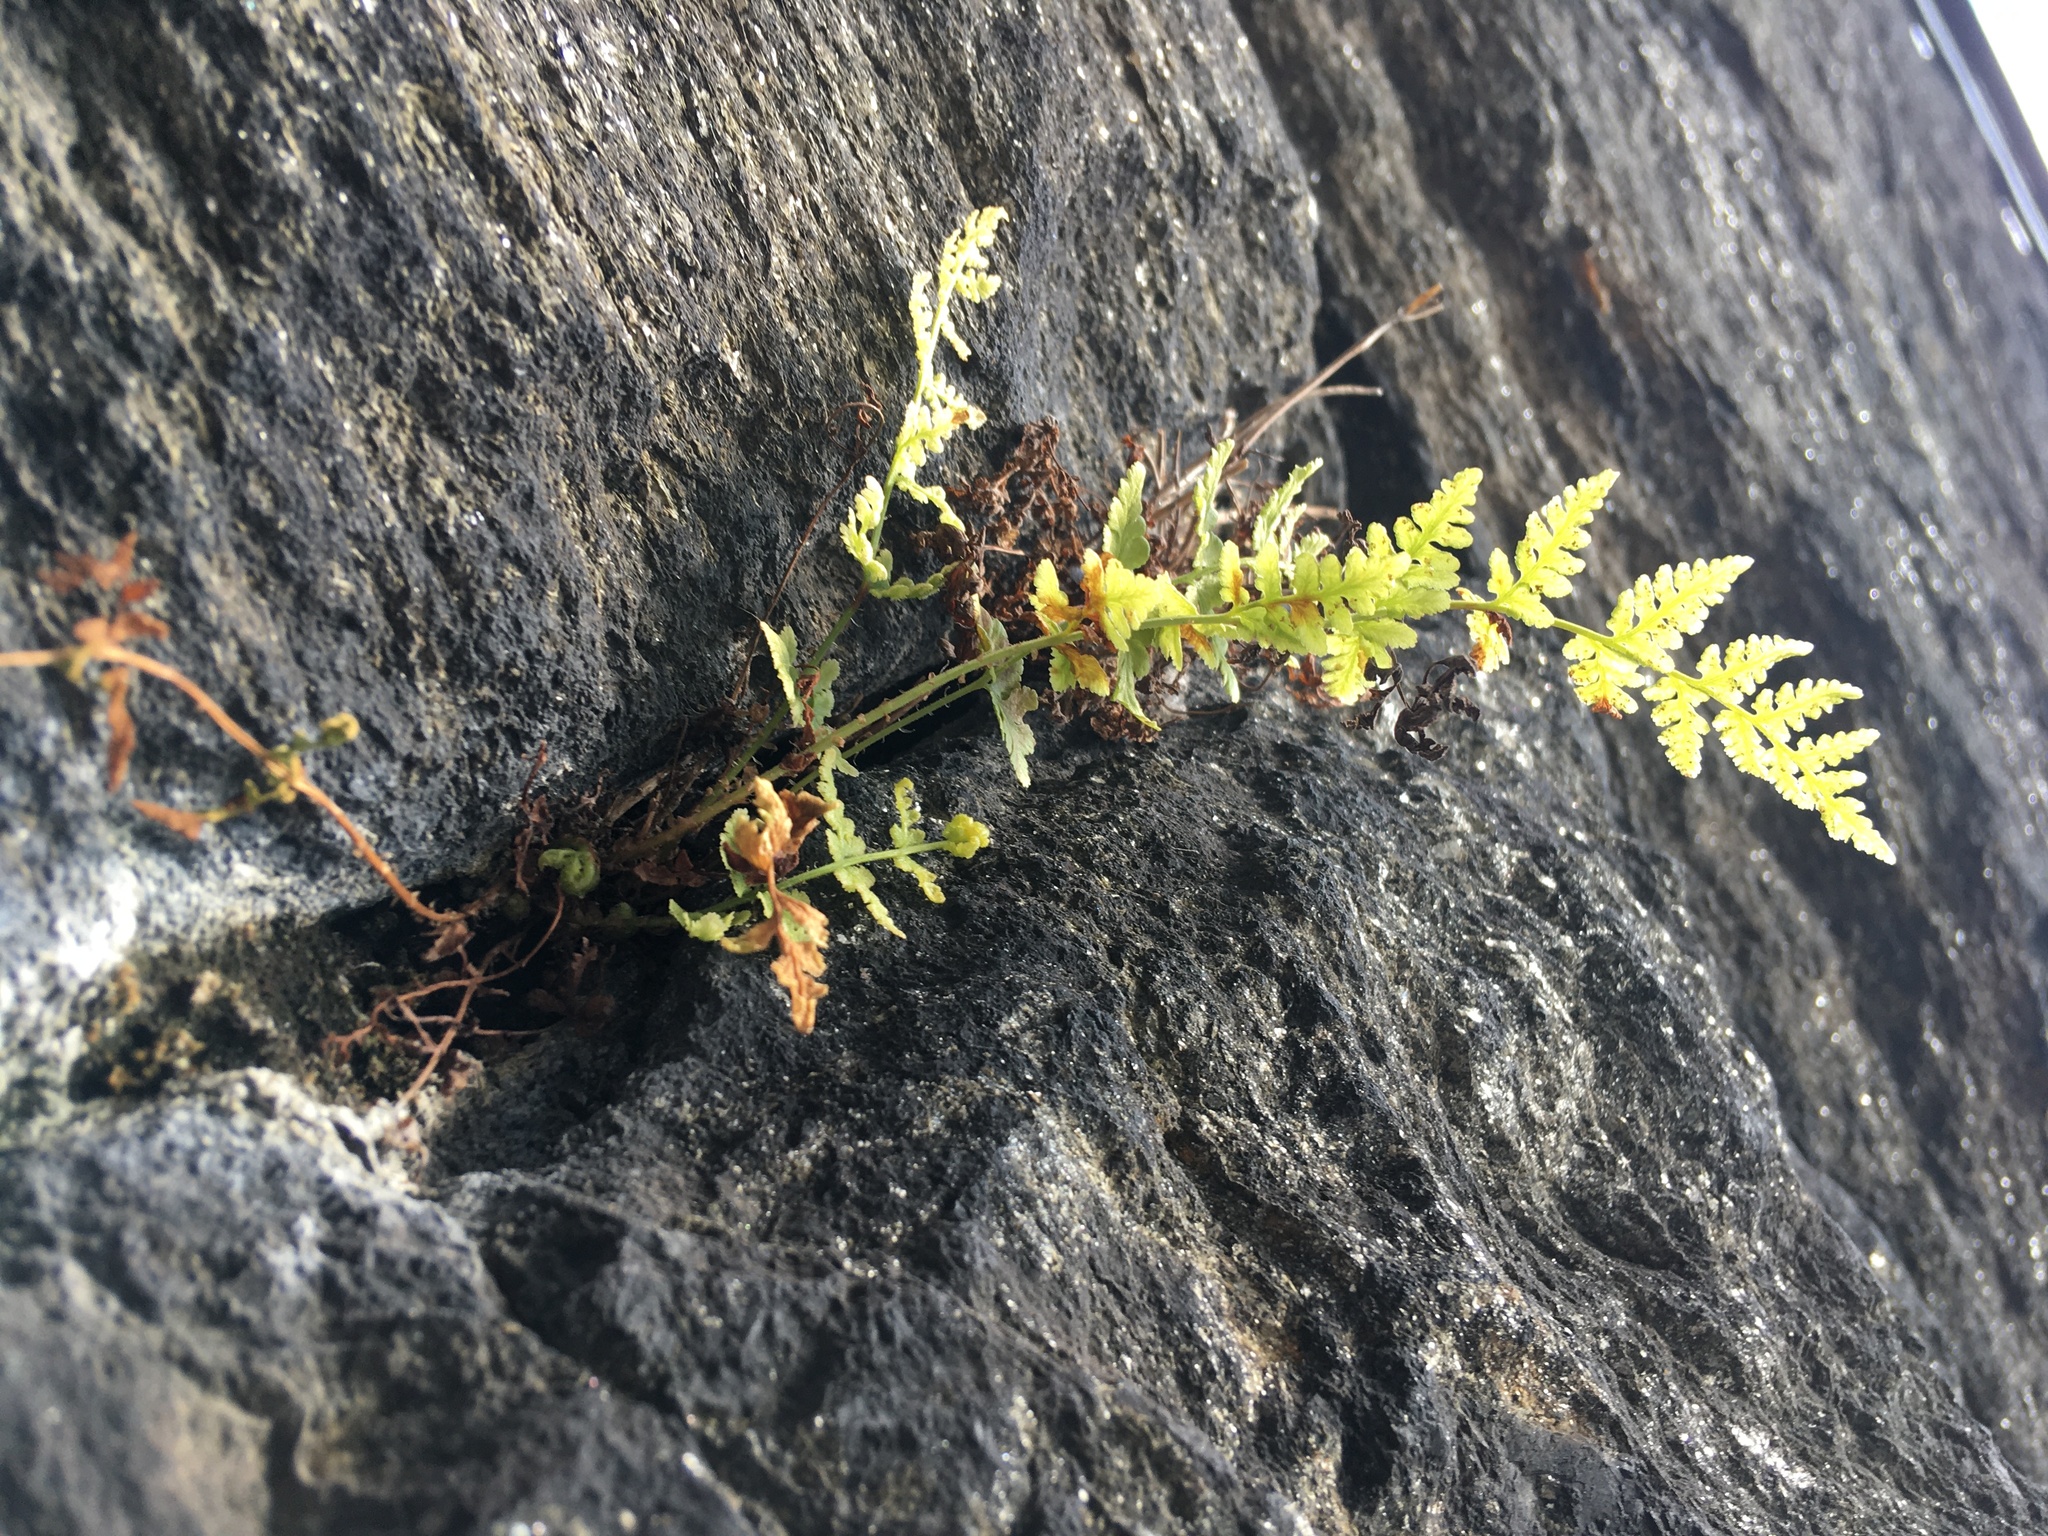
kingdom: Plantae
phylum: Tracheophyta
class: Polypodiopsida
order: Polypodiales
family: Woodsiaceae
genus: Physematium
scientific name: Physematium obtusum
